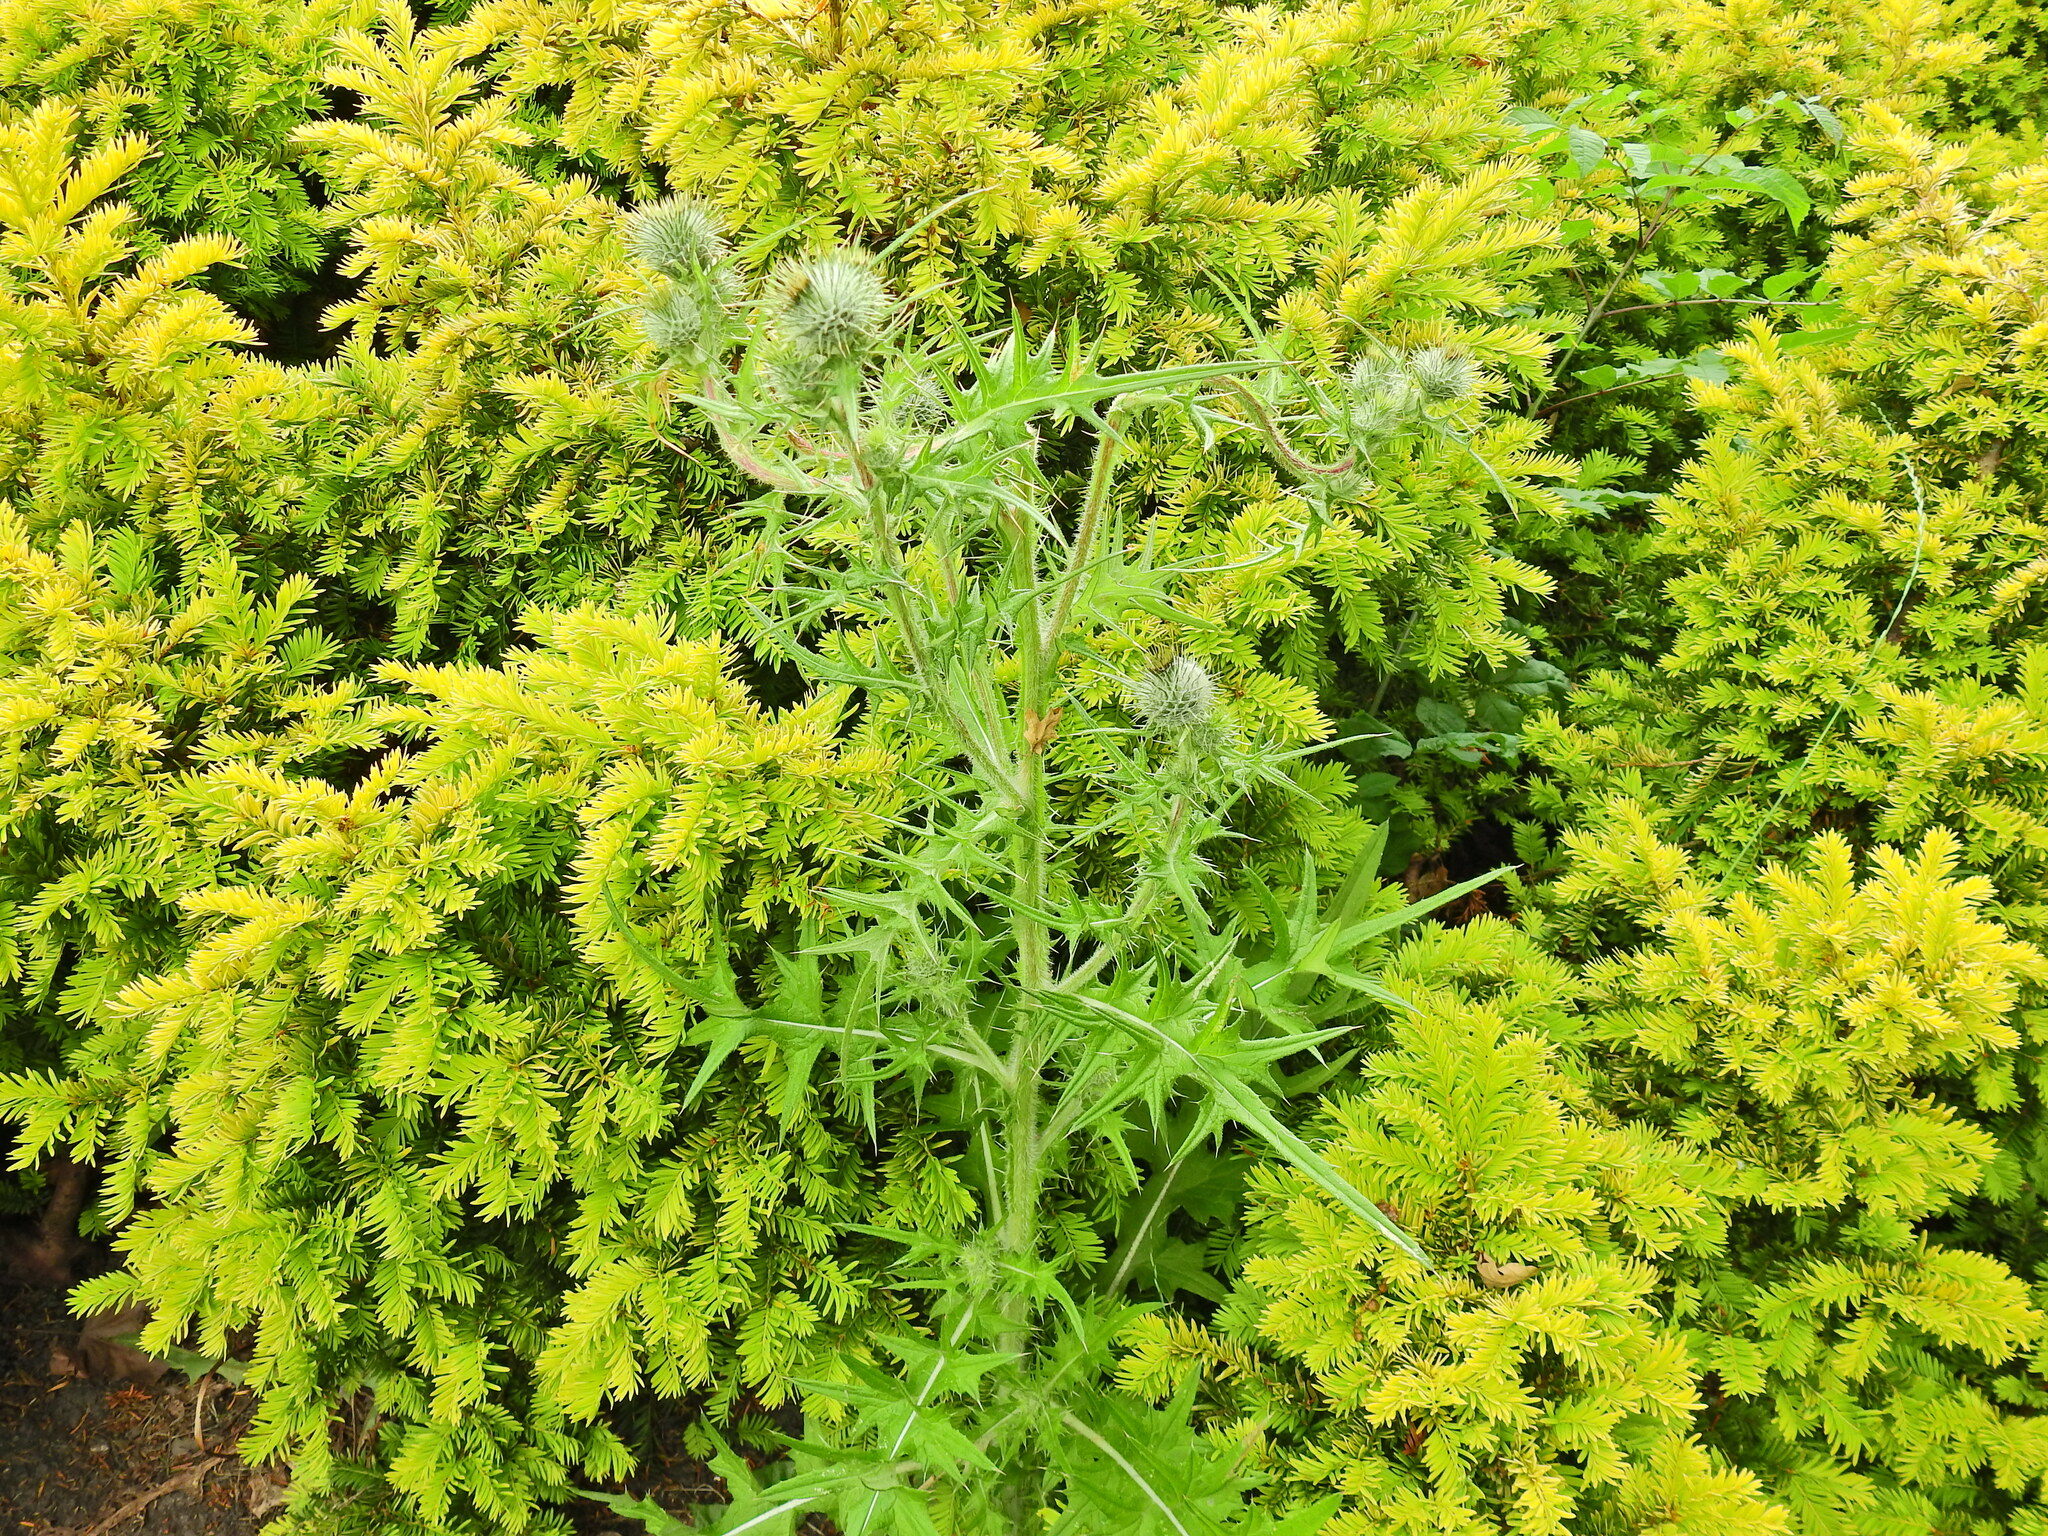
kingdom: Plantae
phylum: Tracheophyta
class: Magnoliopsida
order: Asterales
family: Asteraceae
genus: Cirsium
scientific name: Cirsium vulgare
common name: Bull thistle
